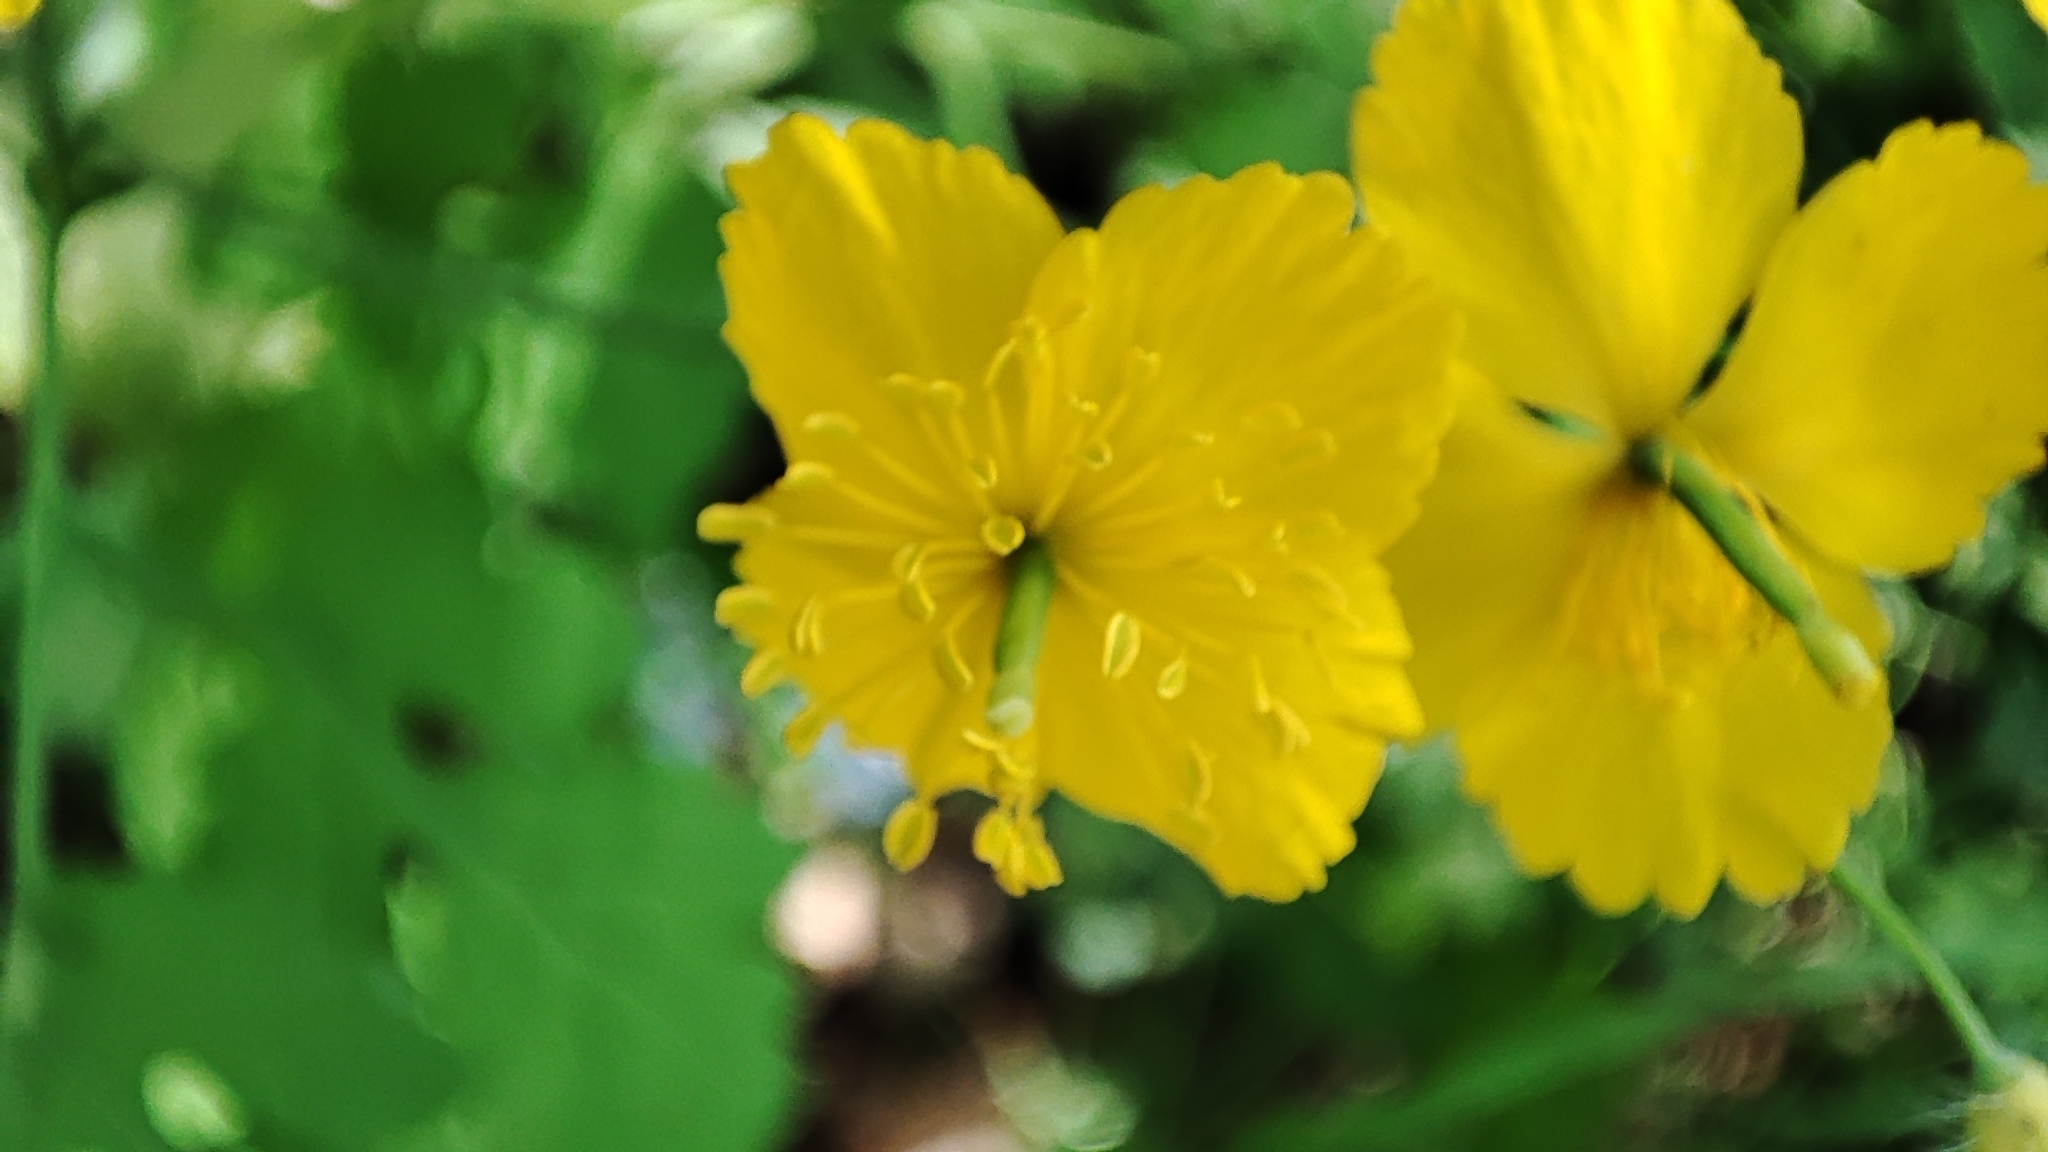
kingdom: Plantae
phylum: Tracheophyta
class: Magnoliopsida
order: Ranunculales
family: Papaveraceae
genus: Chelidonium
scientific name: Chelidonium majus
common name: Greater celandine
